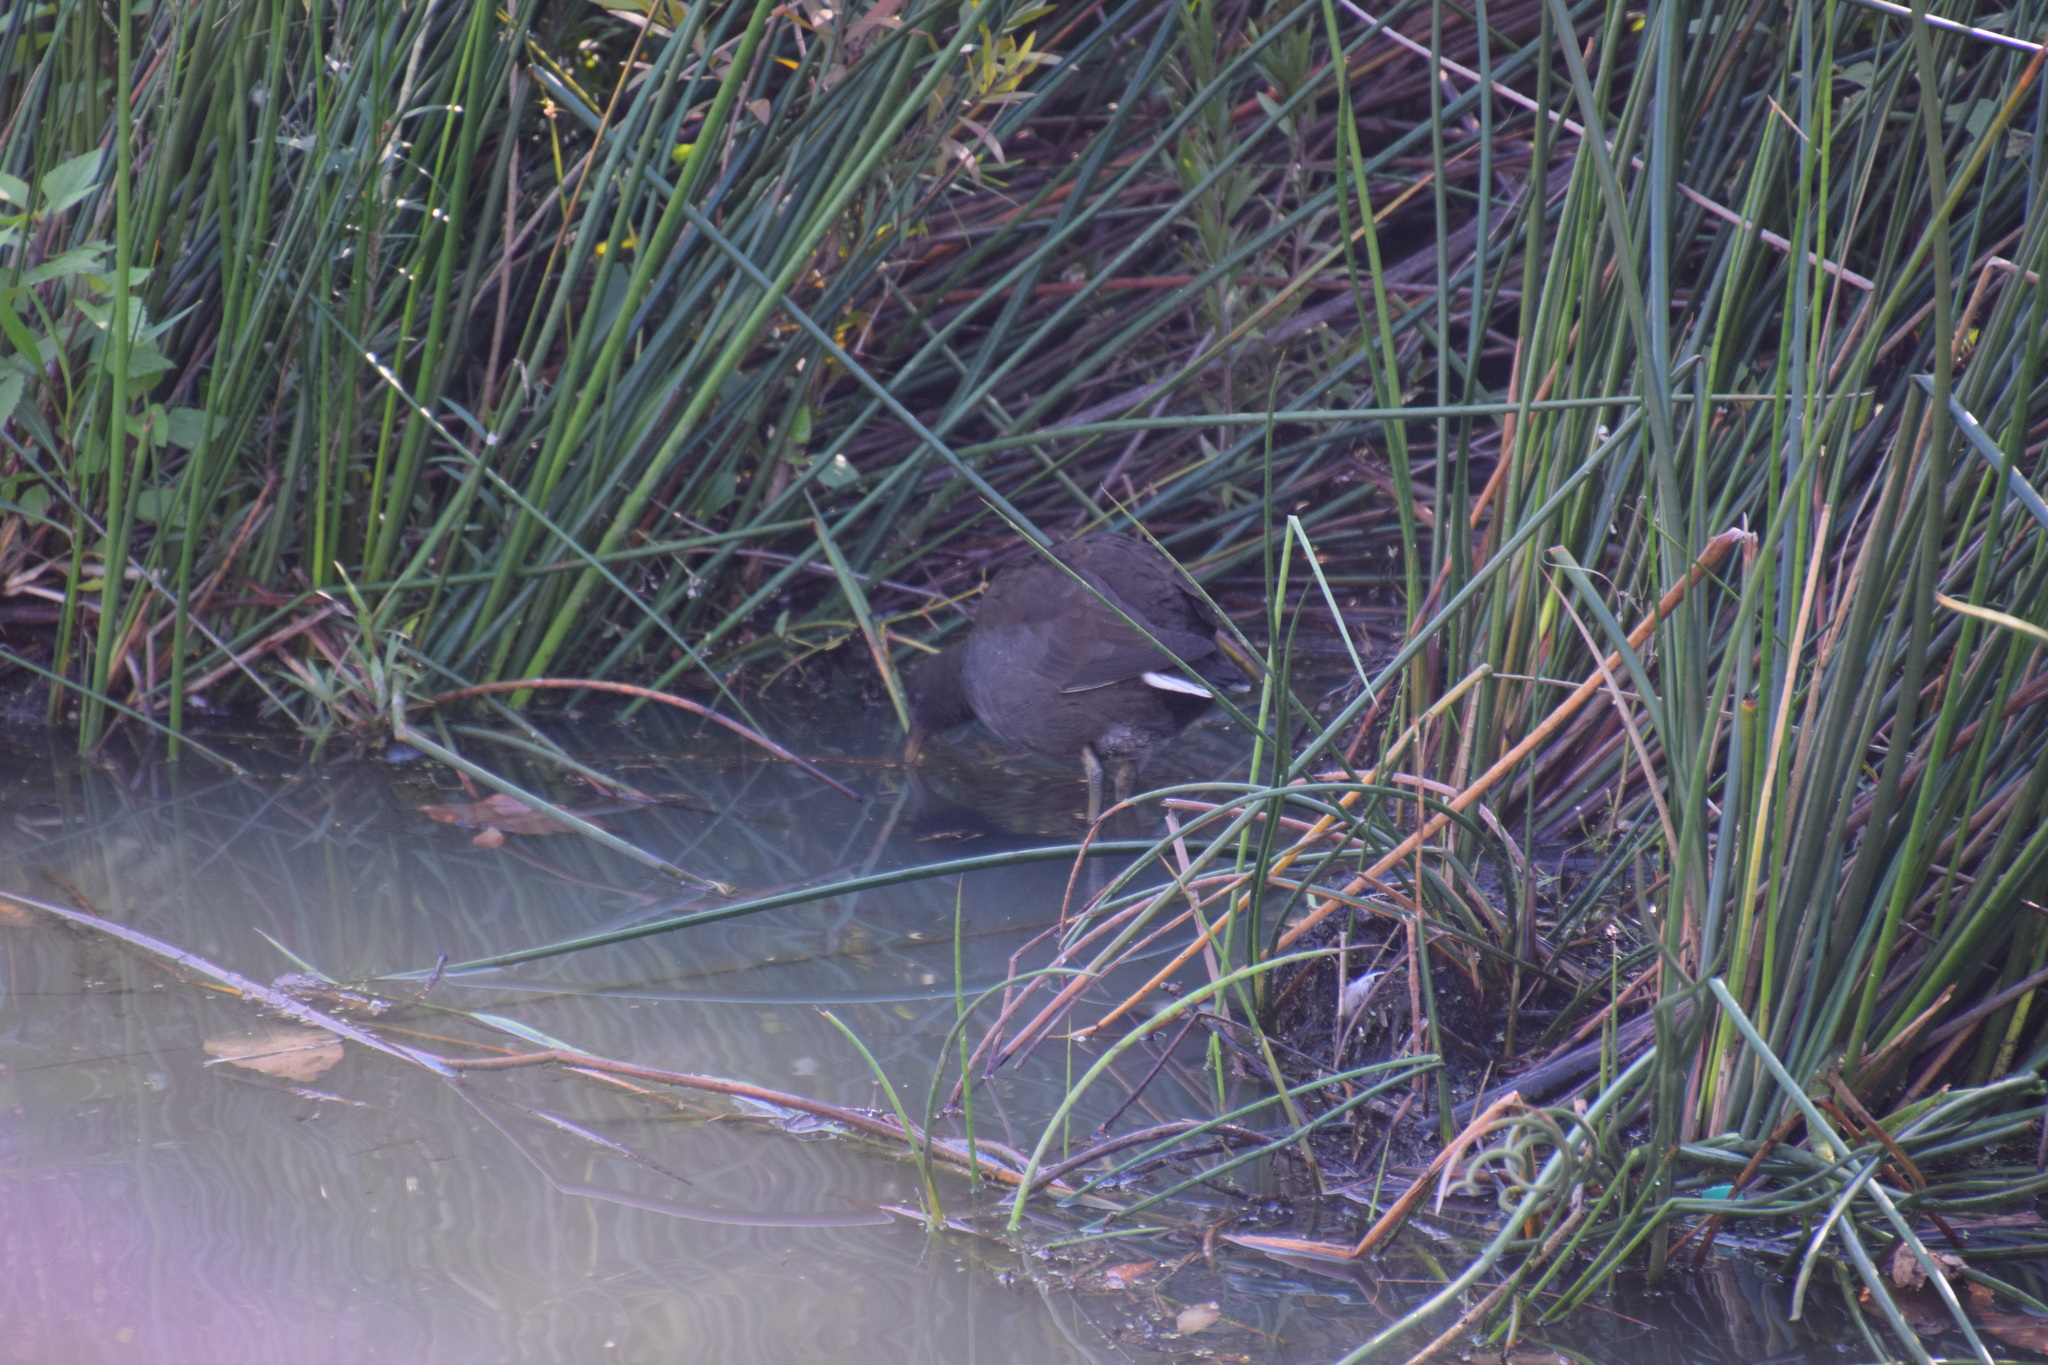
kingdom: Animalia
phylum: Chordata
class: Aves
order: Gruiformes
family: Rallidae
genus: Gallinula
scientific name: Gallinula tenebrosa
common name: Dusky moorhen
